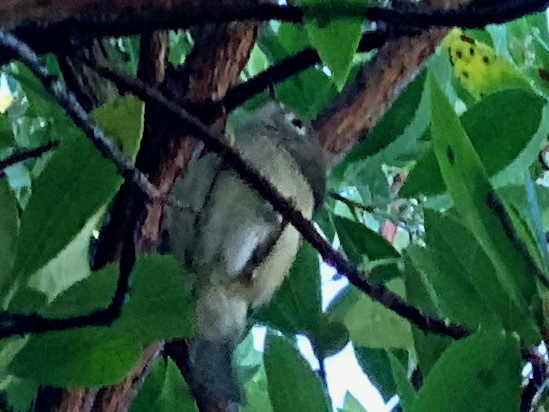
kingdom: Animalia
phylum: Chordata
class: Aves
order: Passeriformes
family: Regulidae
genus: Regulus
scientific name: Regulus calendula
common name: Ruby-crowned kinglet
